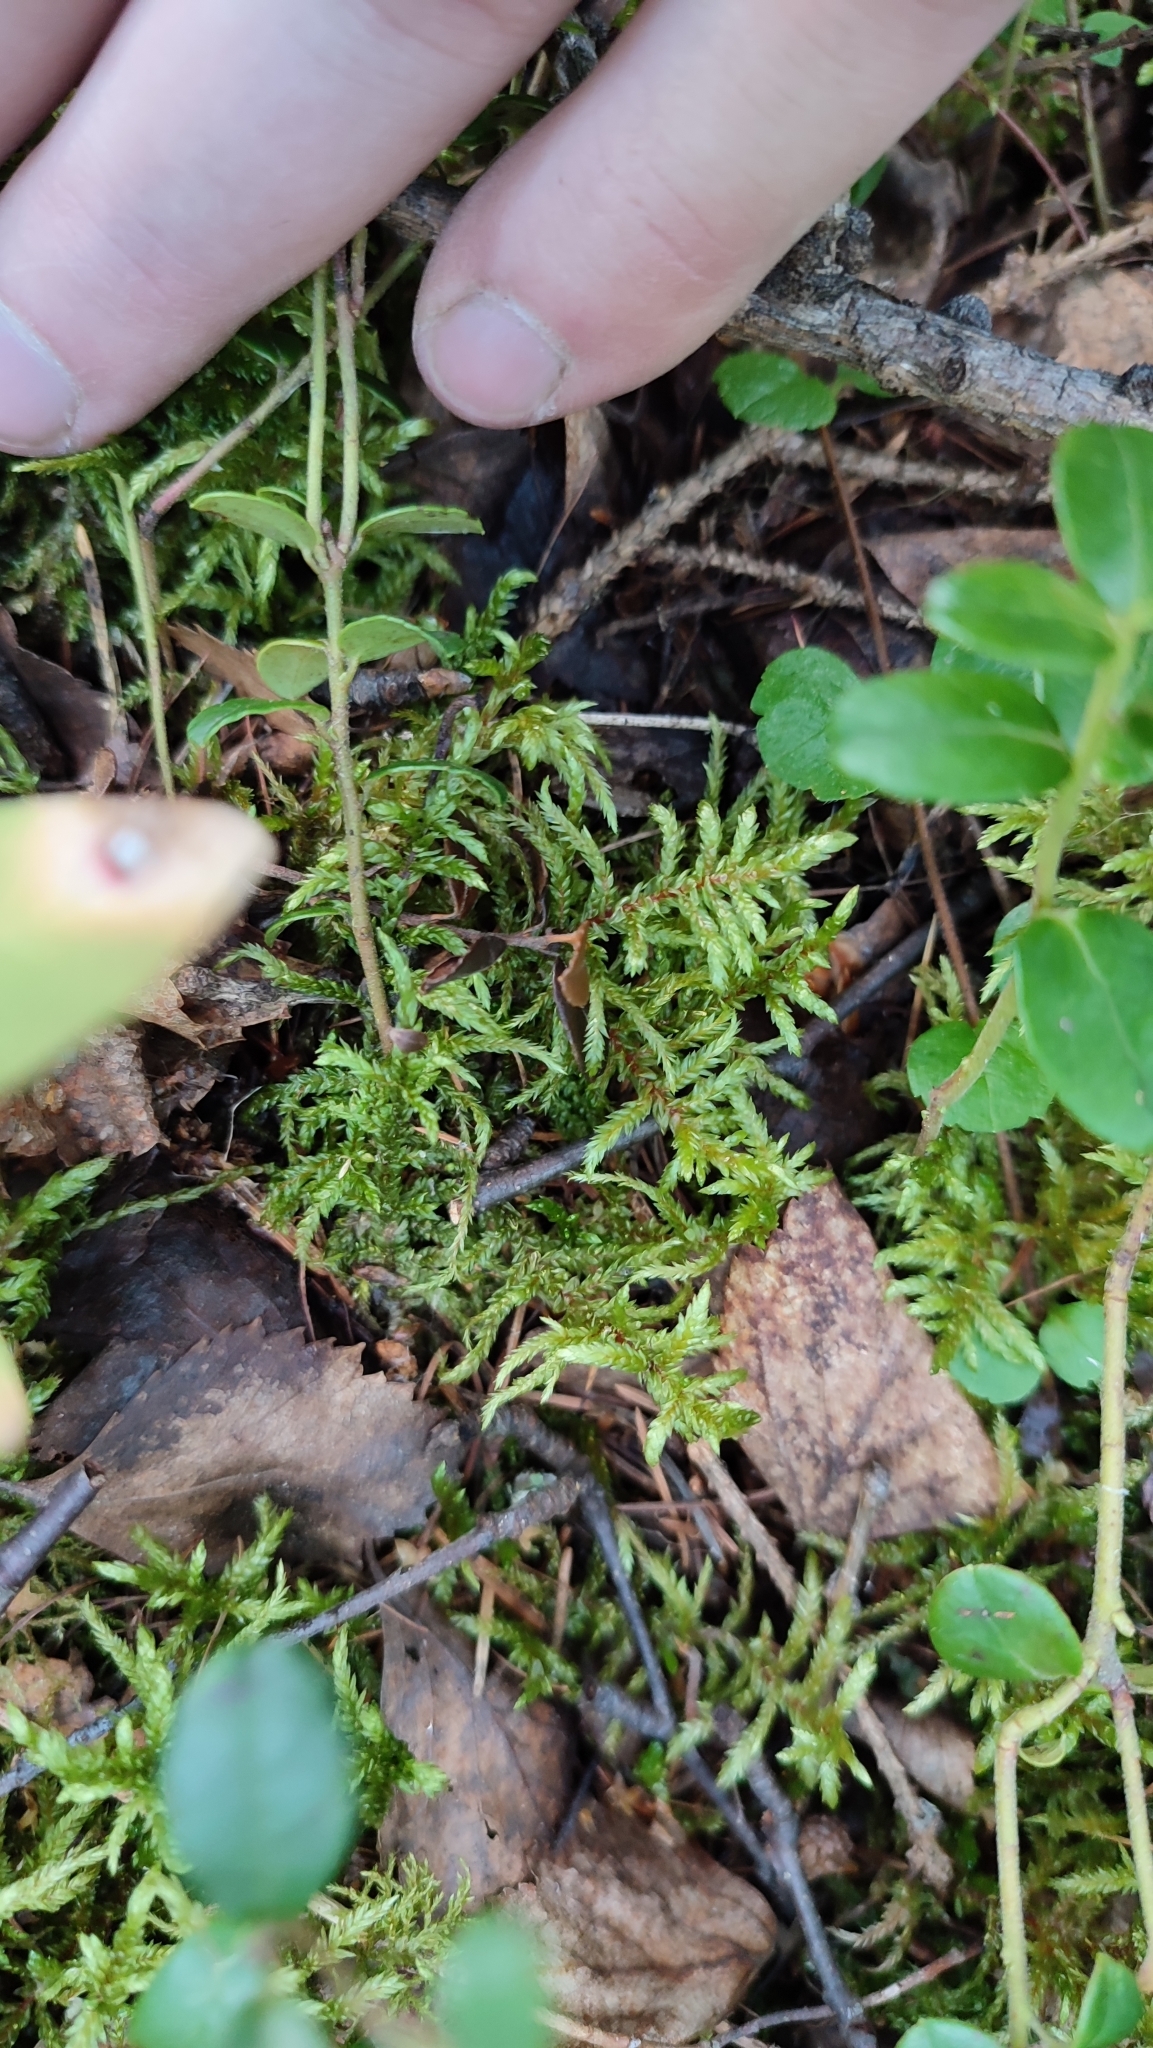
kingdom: Plantae
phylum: Bryophyta
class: Bryopsida
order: Hypnales
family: Hylocomiaceae
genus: Pleurozium
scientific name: Pleurozium schreberi
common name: Red-stemmed feather moss
